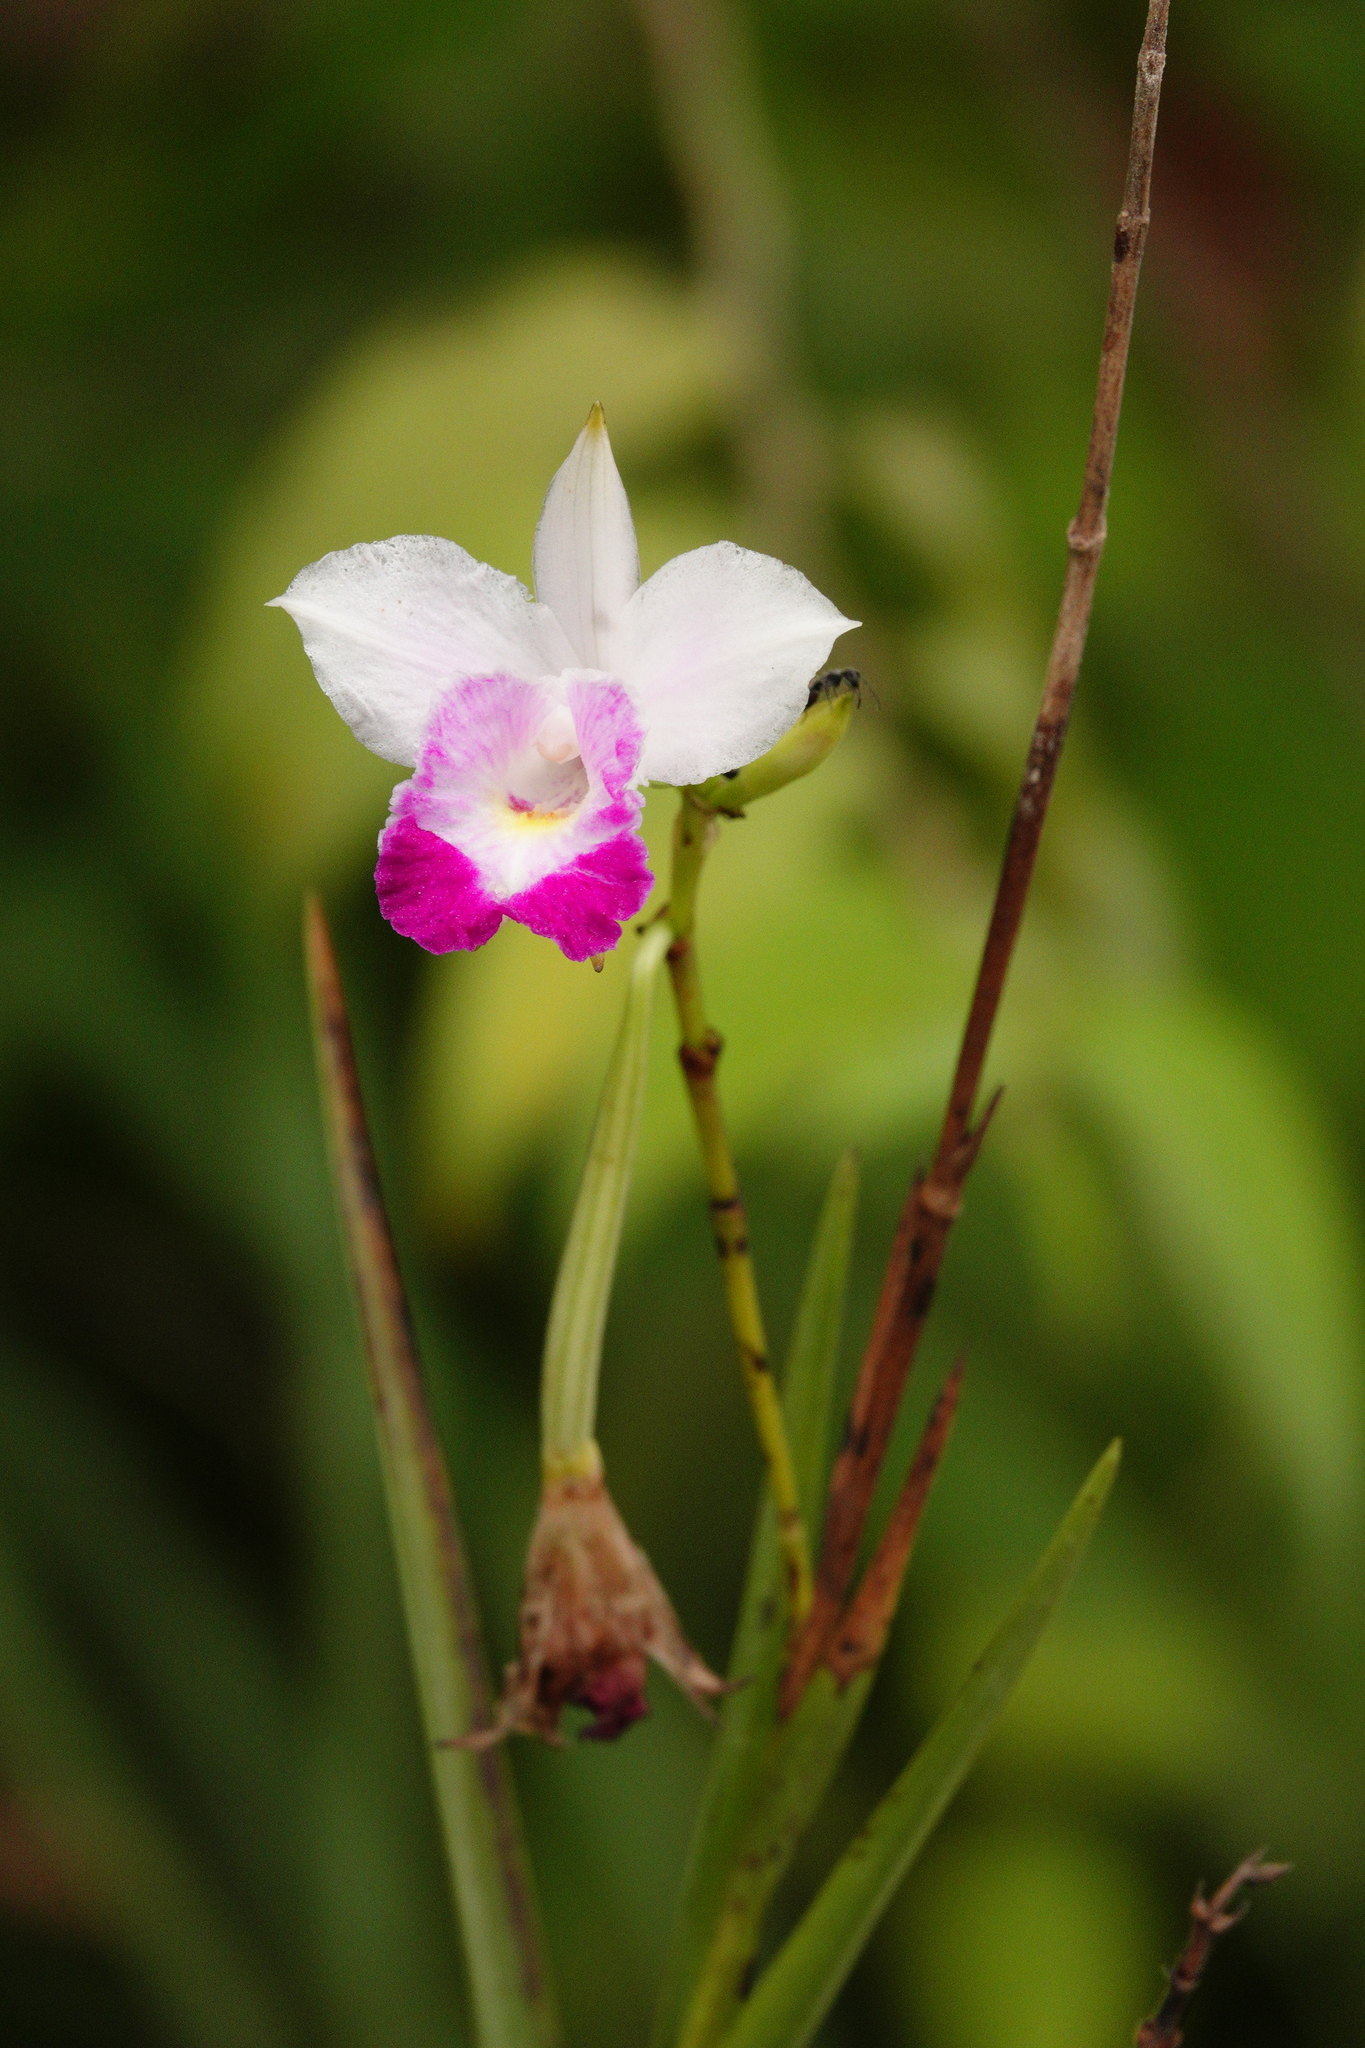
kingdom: Plantae
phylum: Tracheophyta
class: Liliopsida
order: Asparagales
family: Orchidaceae
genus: Arundina
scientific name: Arundina graminifolia
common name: Bamboo orchid
